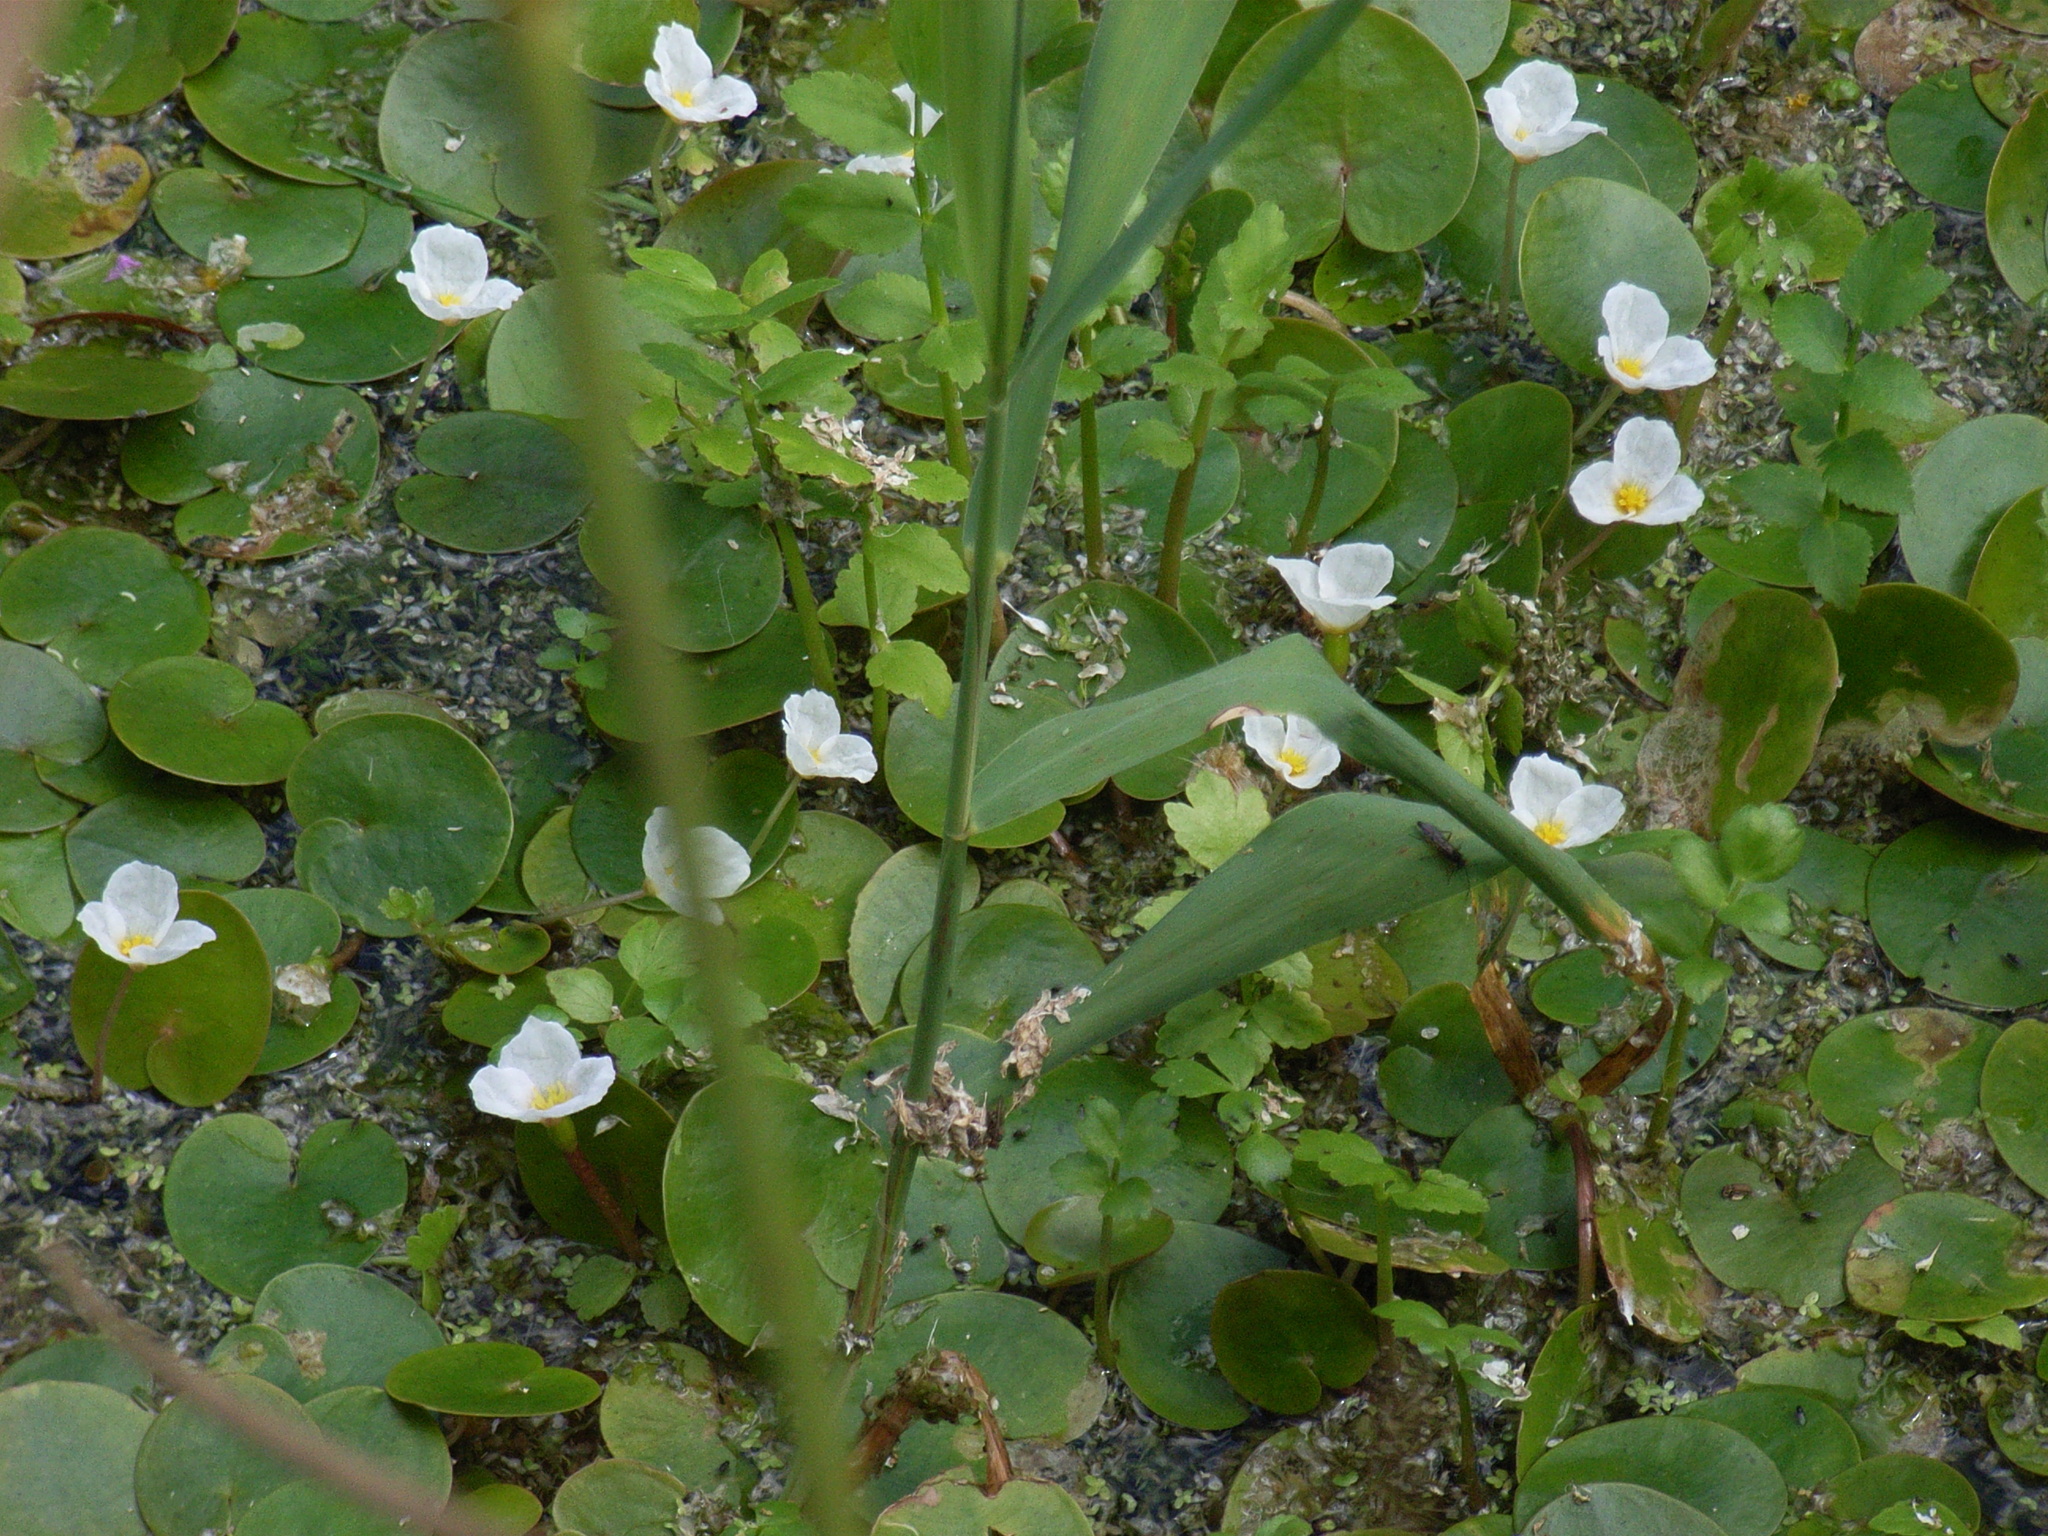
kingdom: Plantae
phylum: Tracheophyta
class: Liliopsida
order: Alismatales
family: Hydrocharitaceae
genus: Hydrocharis
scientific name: Hydrocharis morsus-ranae
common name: Frogbit
